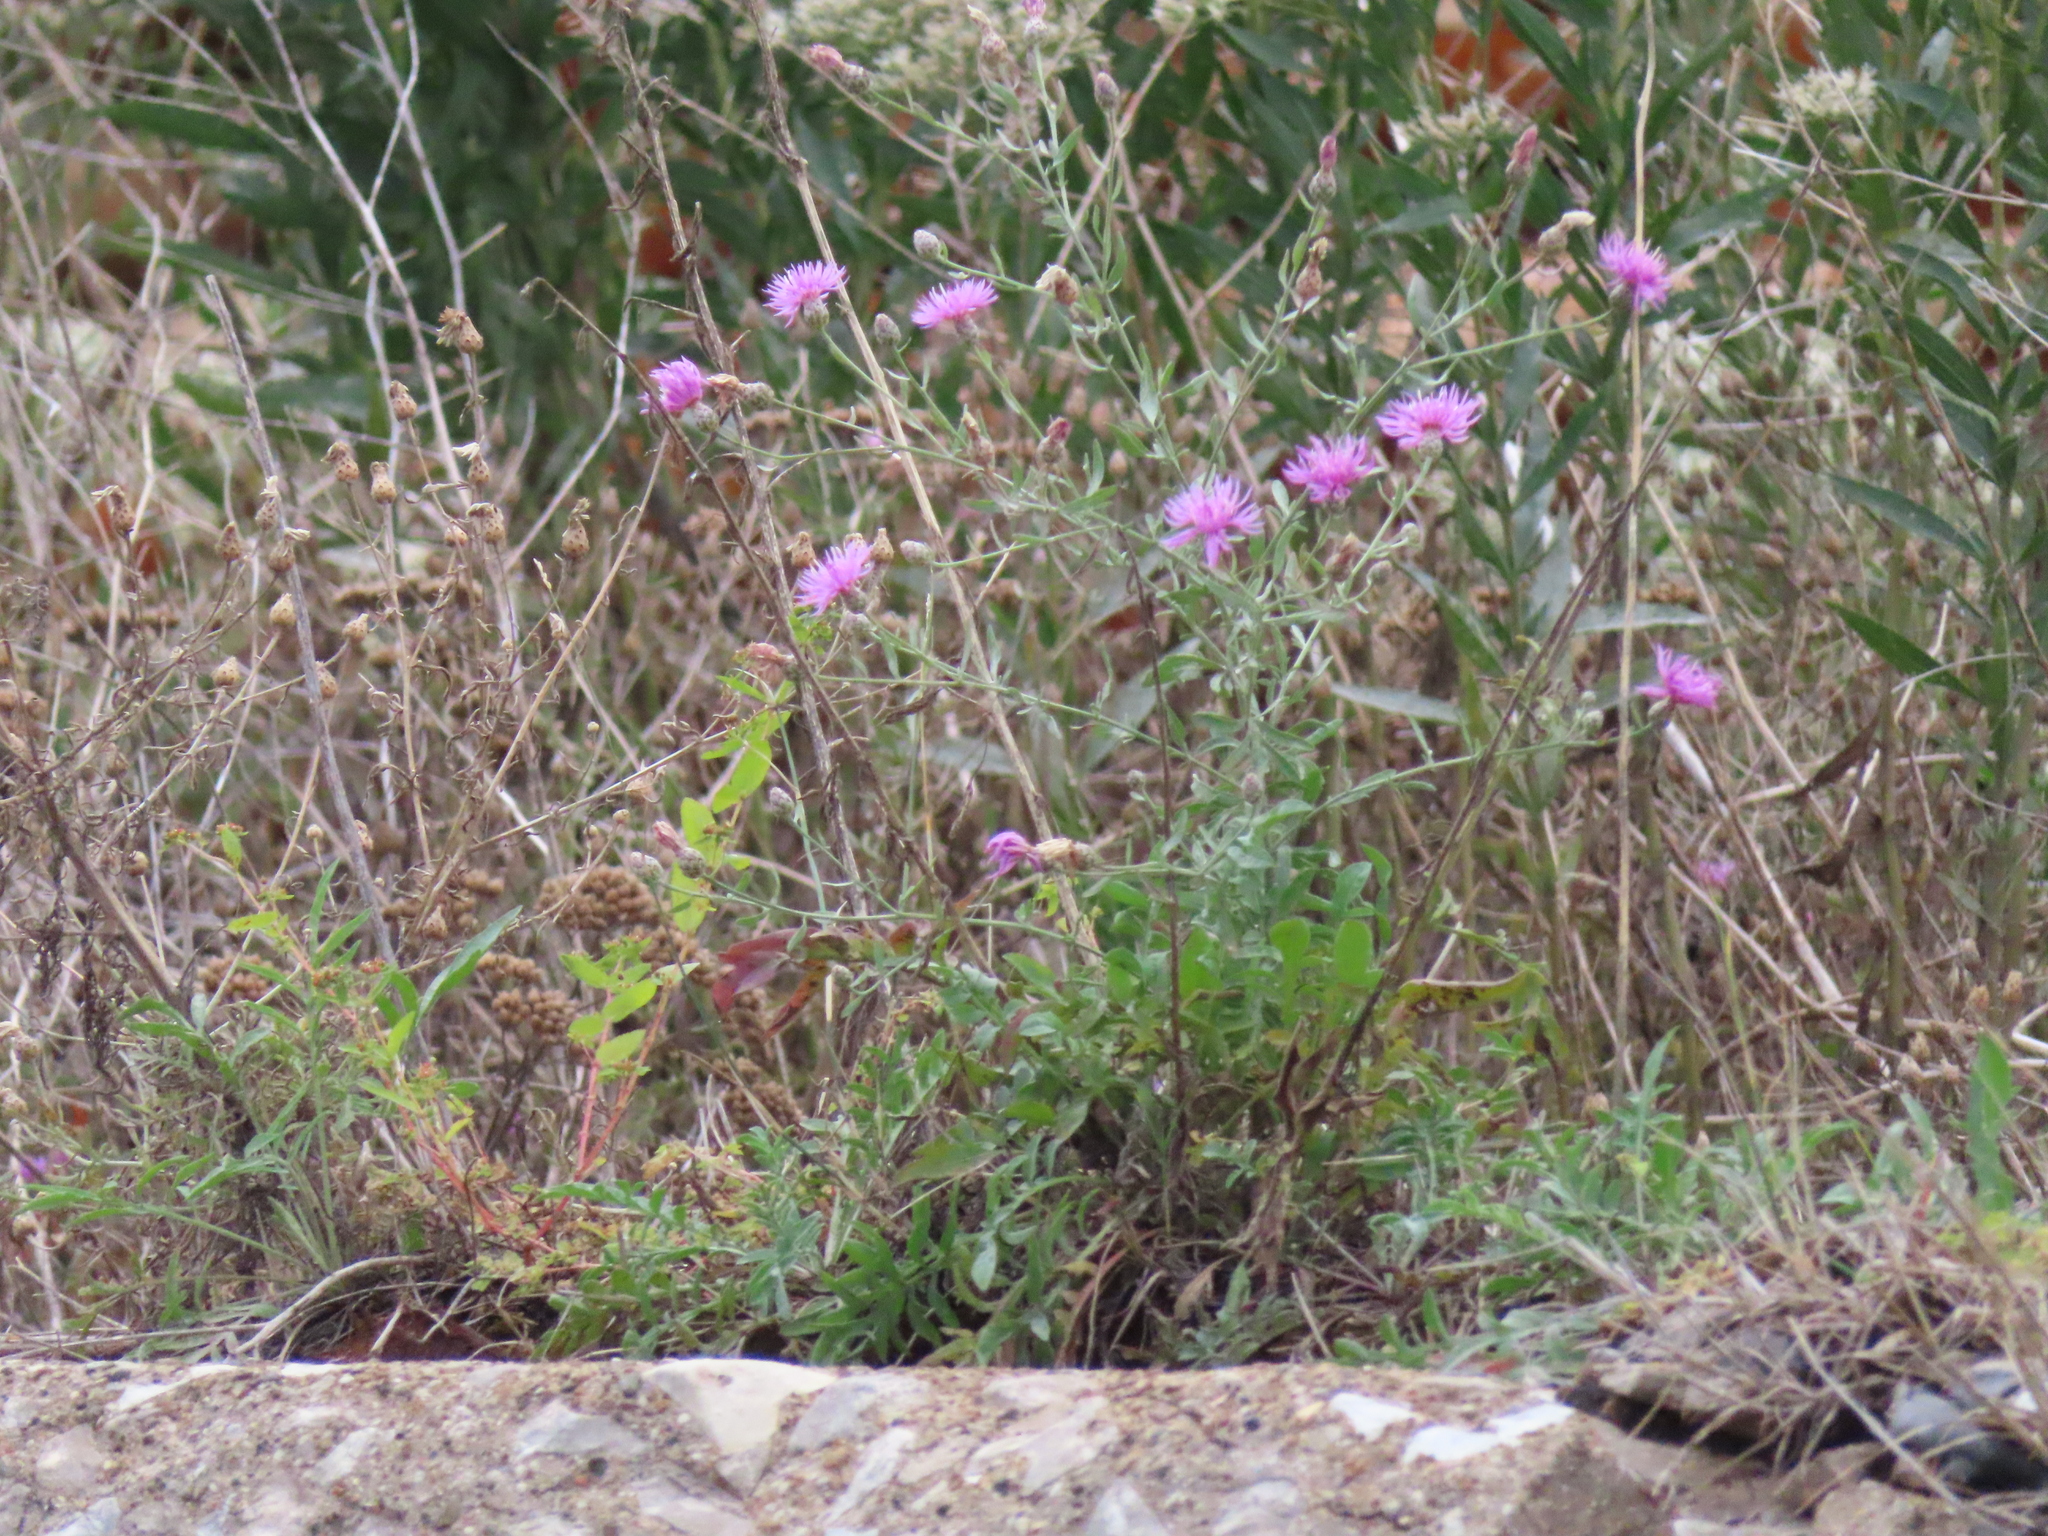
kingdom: Plantae
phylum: Tracheophyta
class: Magnoliopsida
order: Asterales
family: Asteraceae
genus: Centaurea
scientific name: Centaurea stoebe
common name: Spotted knapweed
